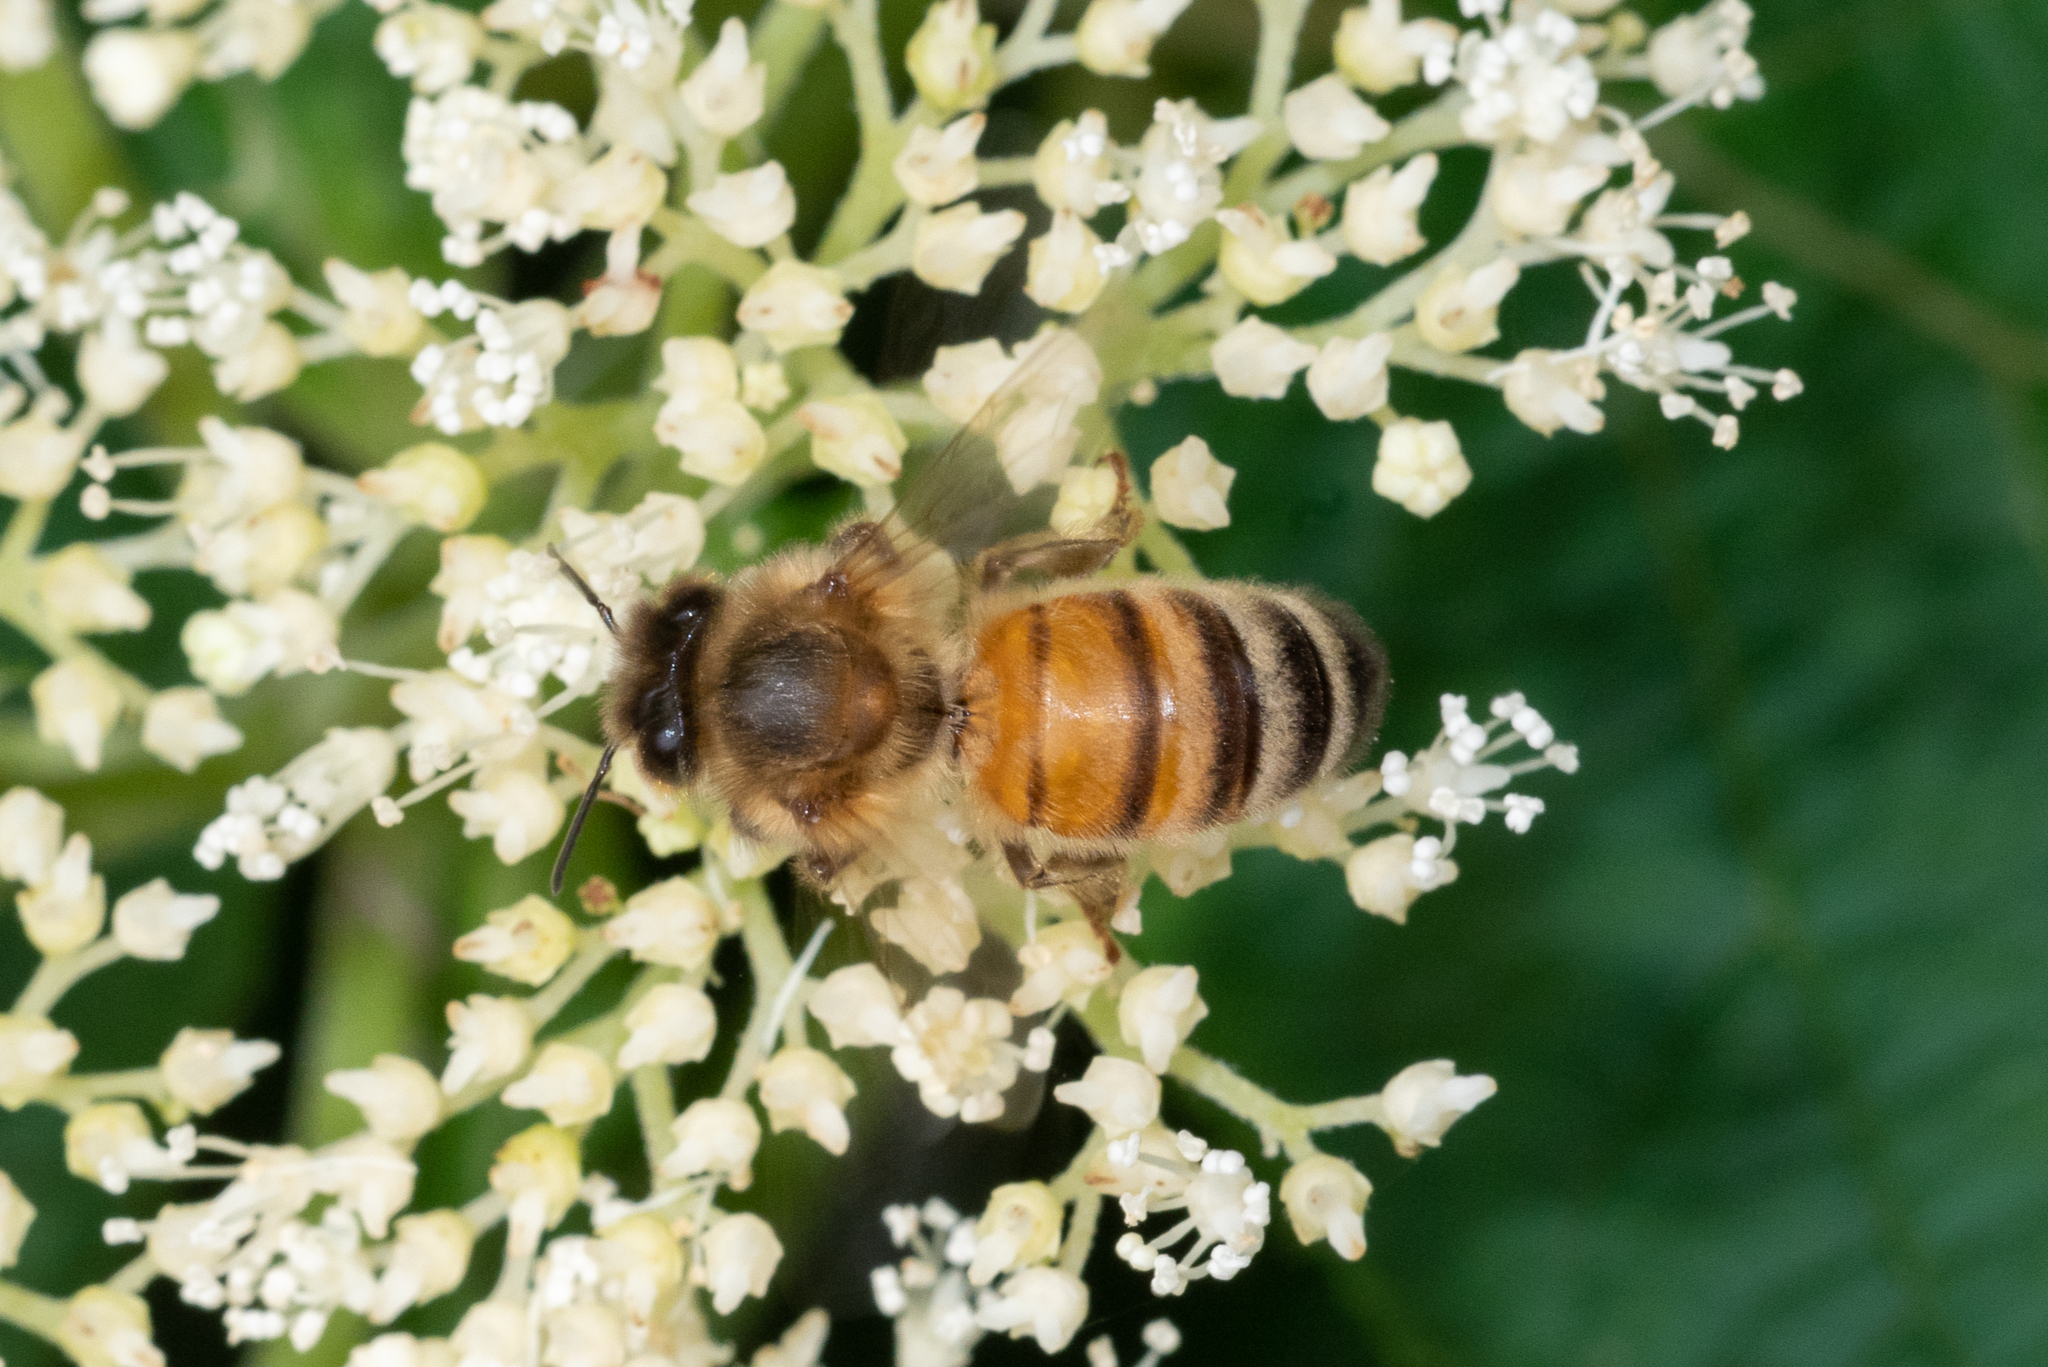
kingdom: Animalia
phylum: Arthropoda
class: Insecta
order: Hymenoptera
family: Apidae
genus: Apis
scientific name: Apis mellifera
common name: Honey bee
